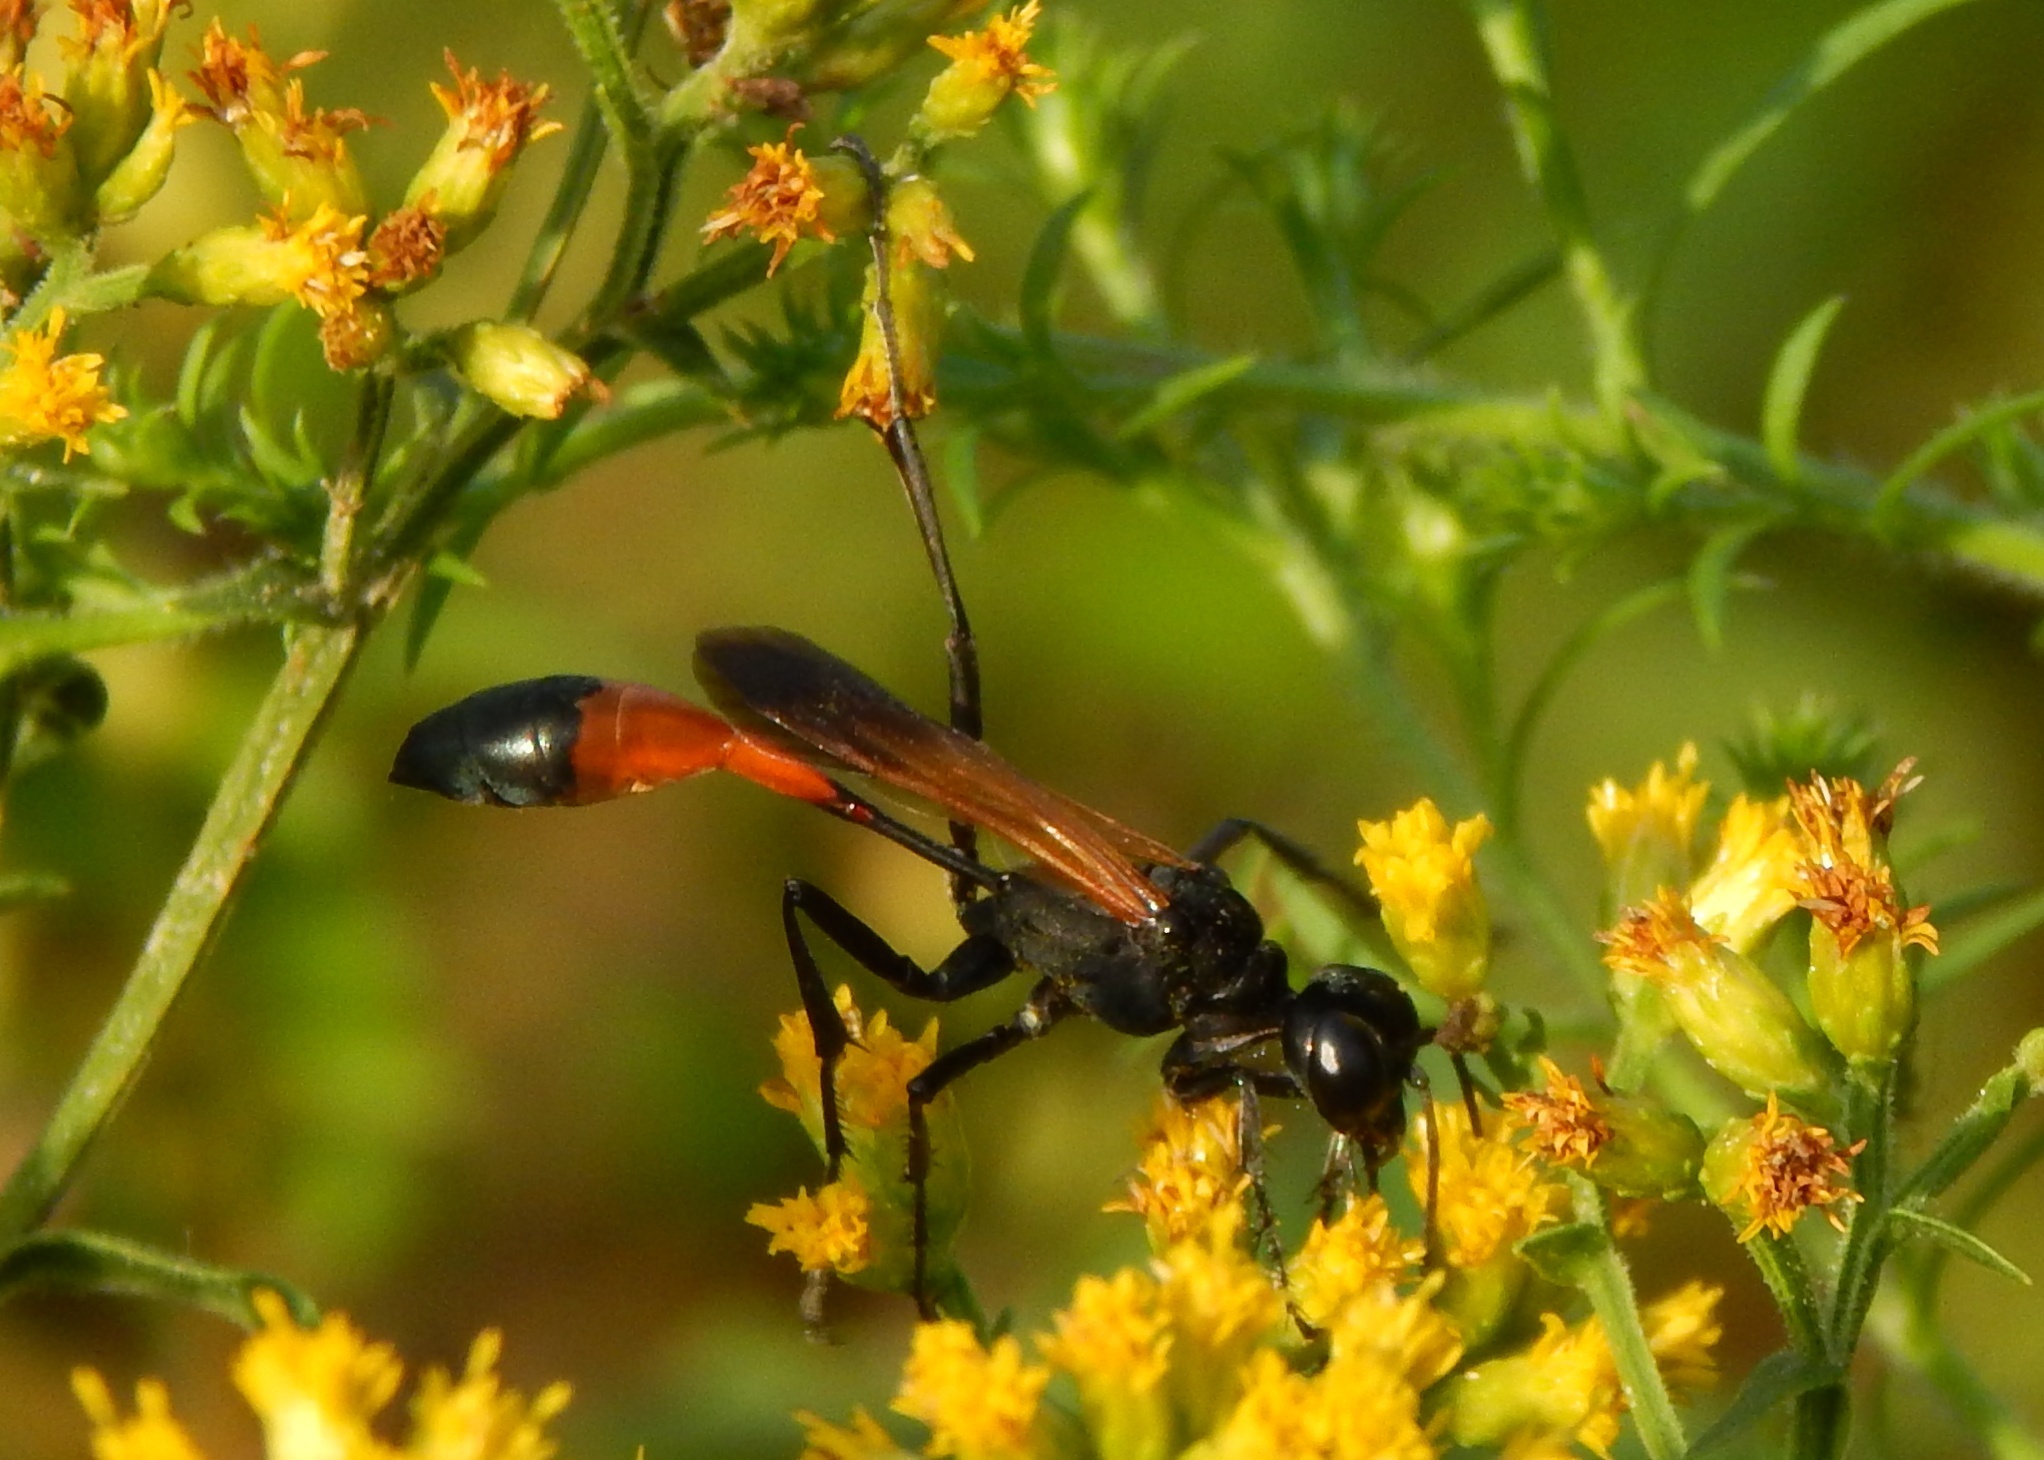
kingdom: Animalia
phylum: Arthropoda
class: Insecta
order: Hymenoptera
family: Sphecidae
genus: Ammophila
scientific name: Ammophila pictipennis
